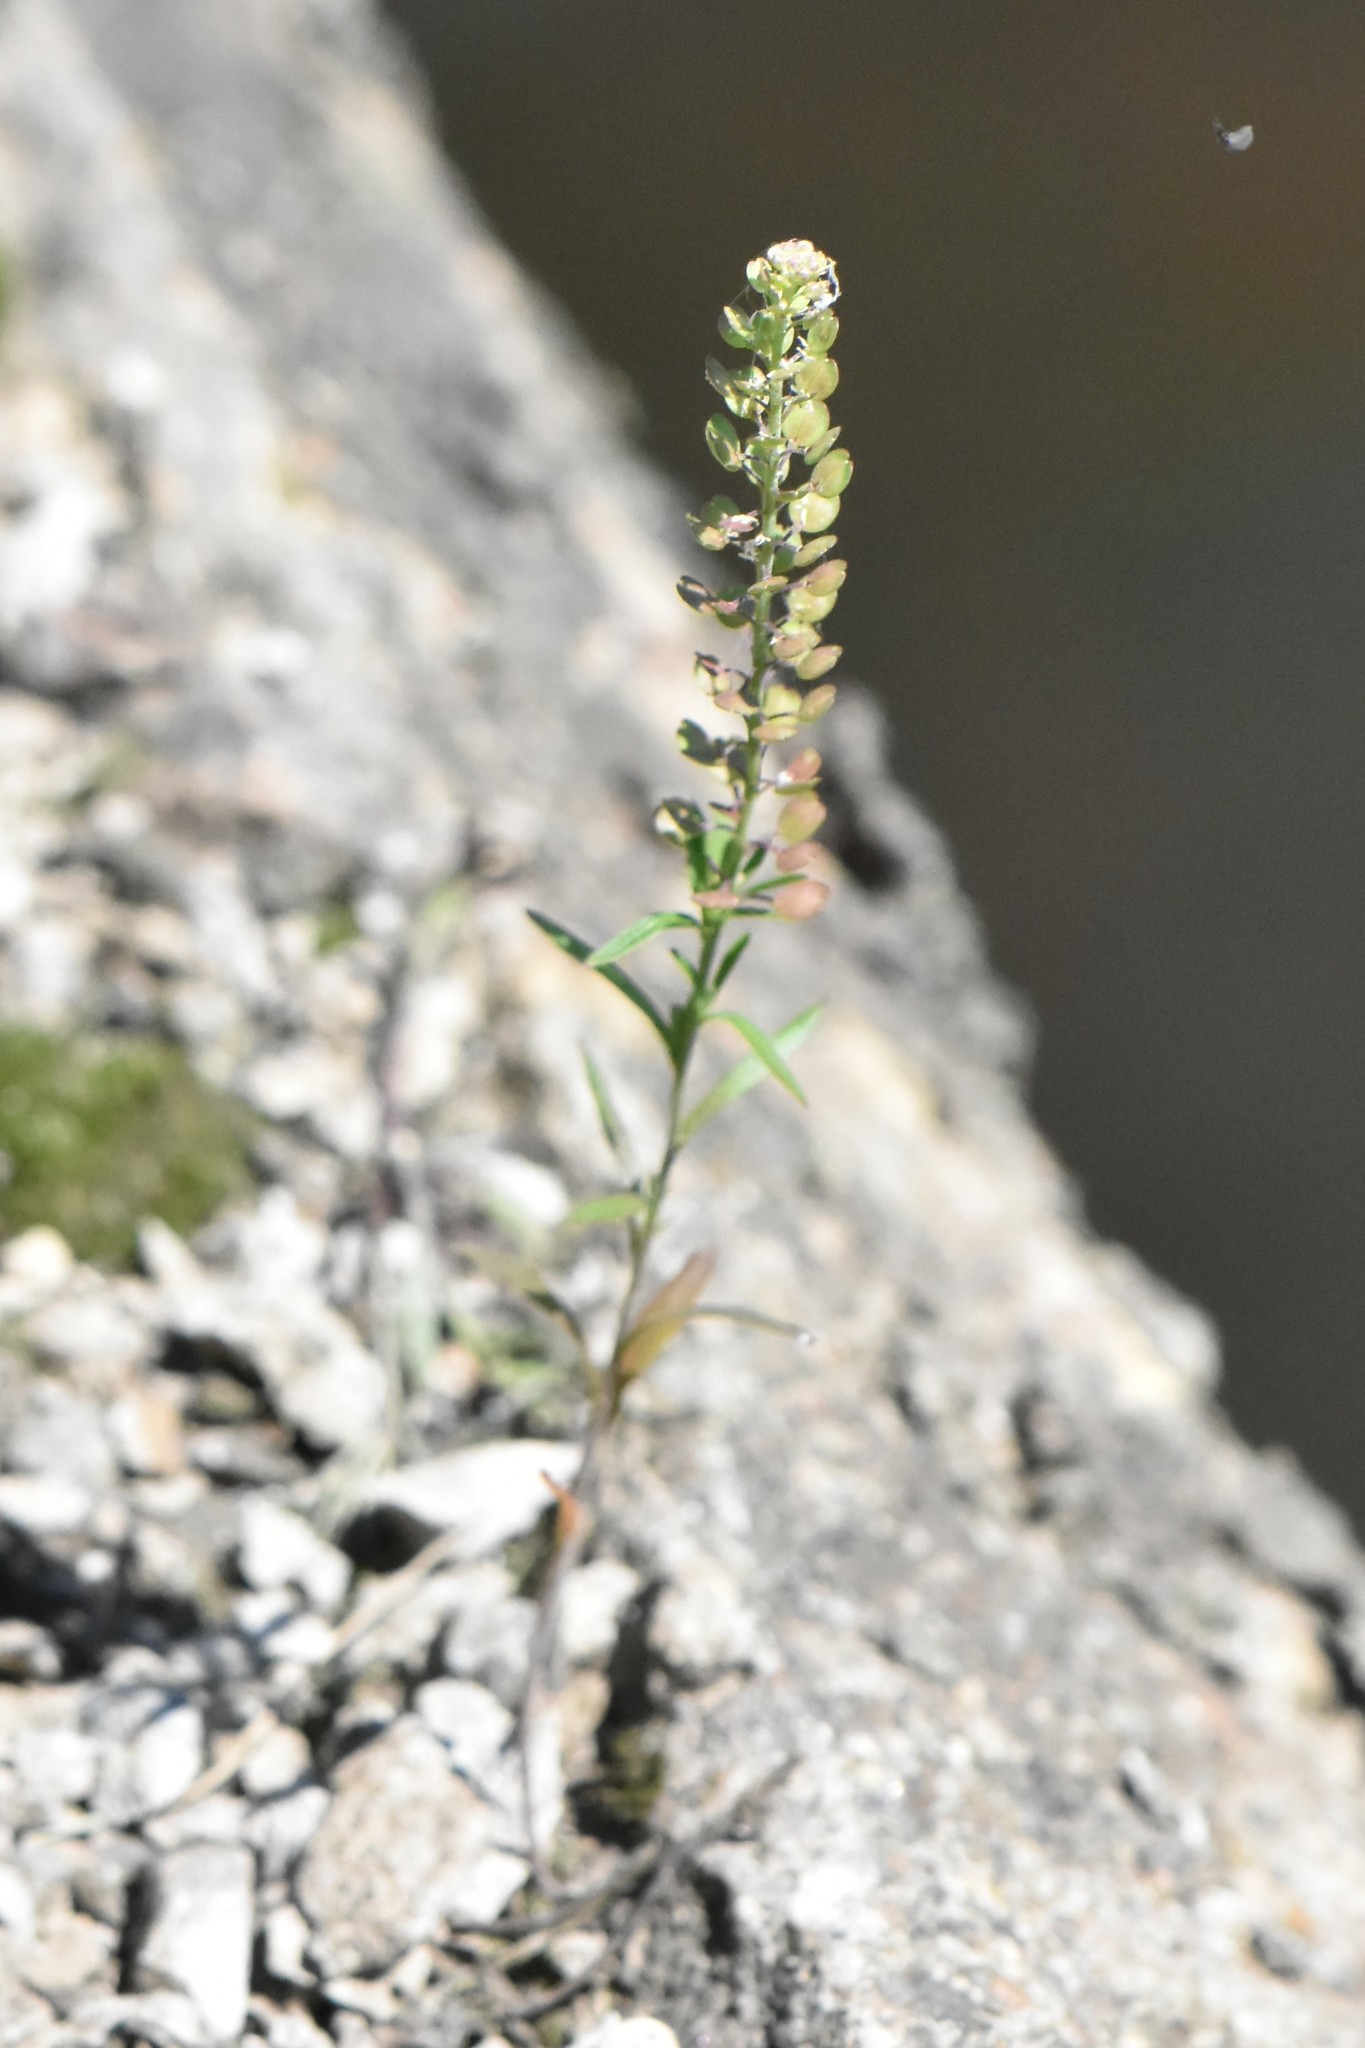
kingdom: Plantae
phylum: Tracheophyta
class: Magnoliopsida
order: Brassicales
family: Brassicaceae
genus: Lepidium
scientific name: Lepidium densiflorum
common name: Miner's pepperwort
